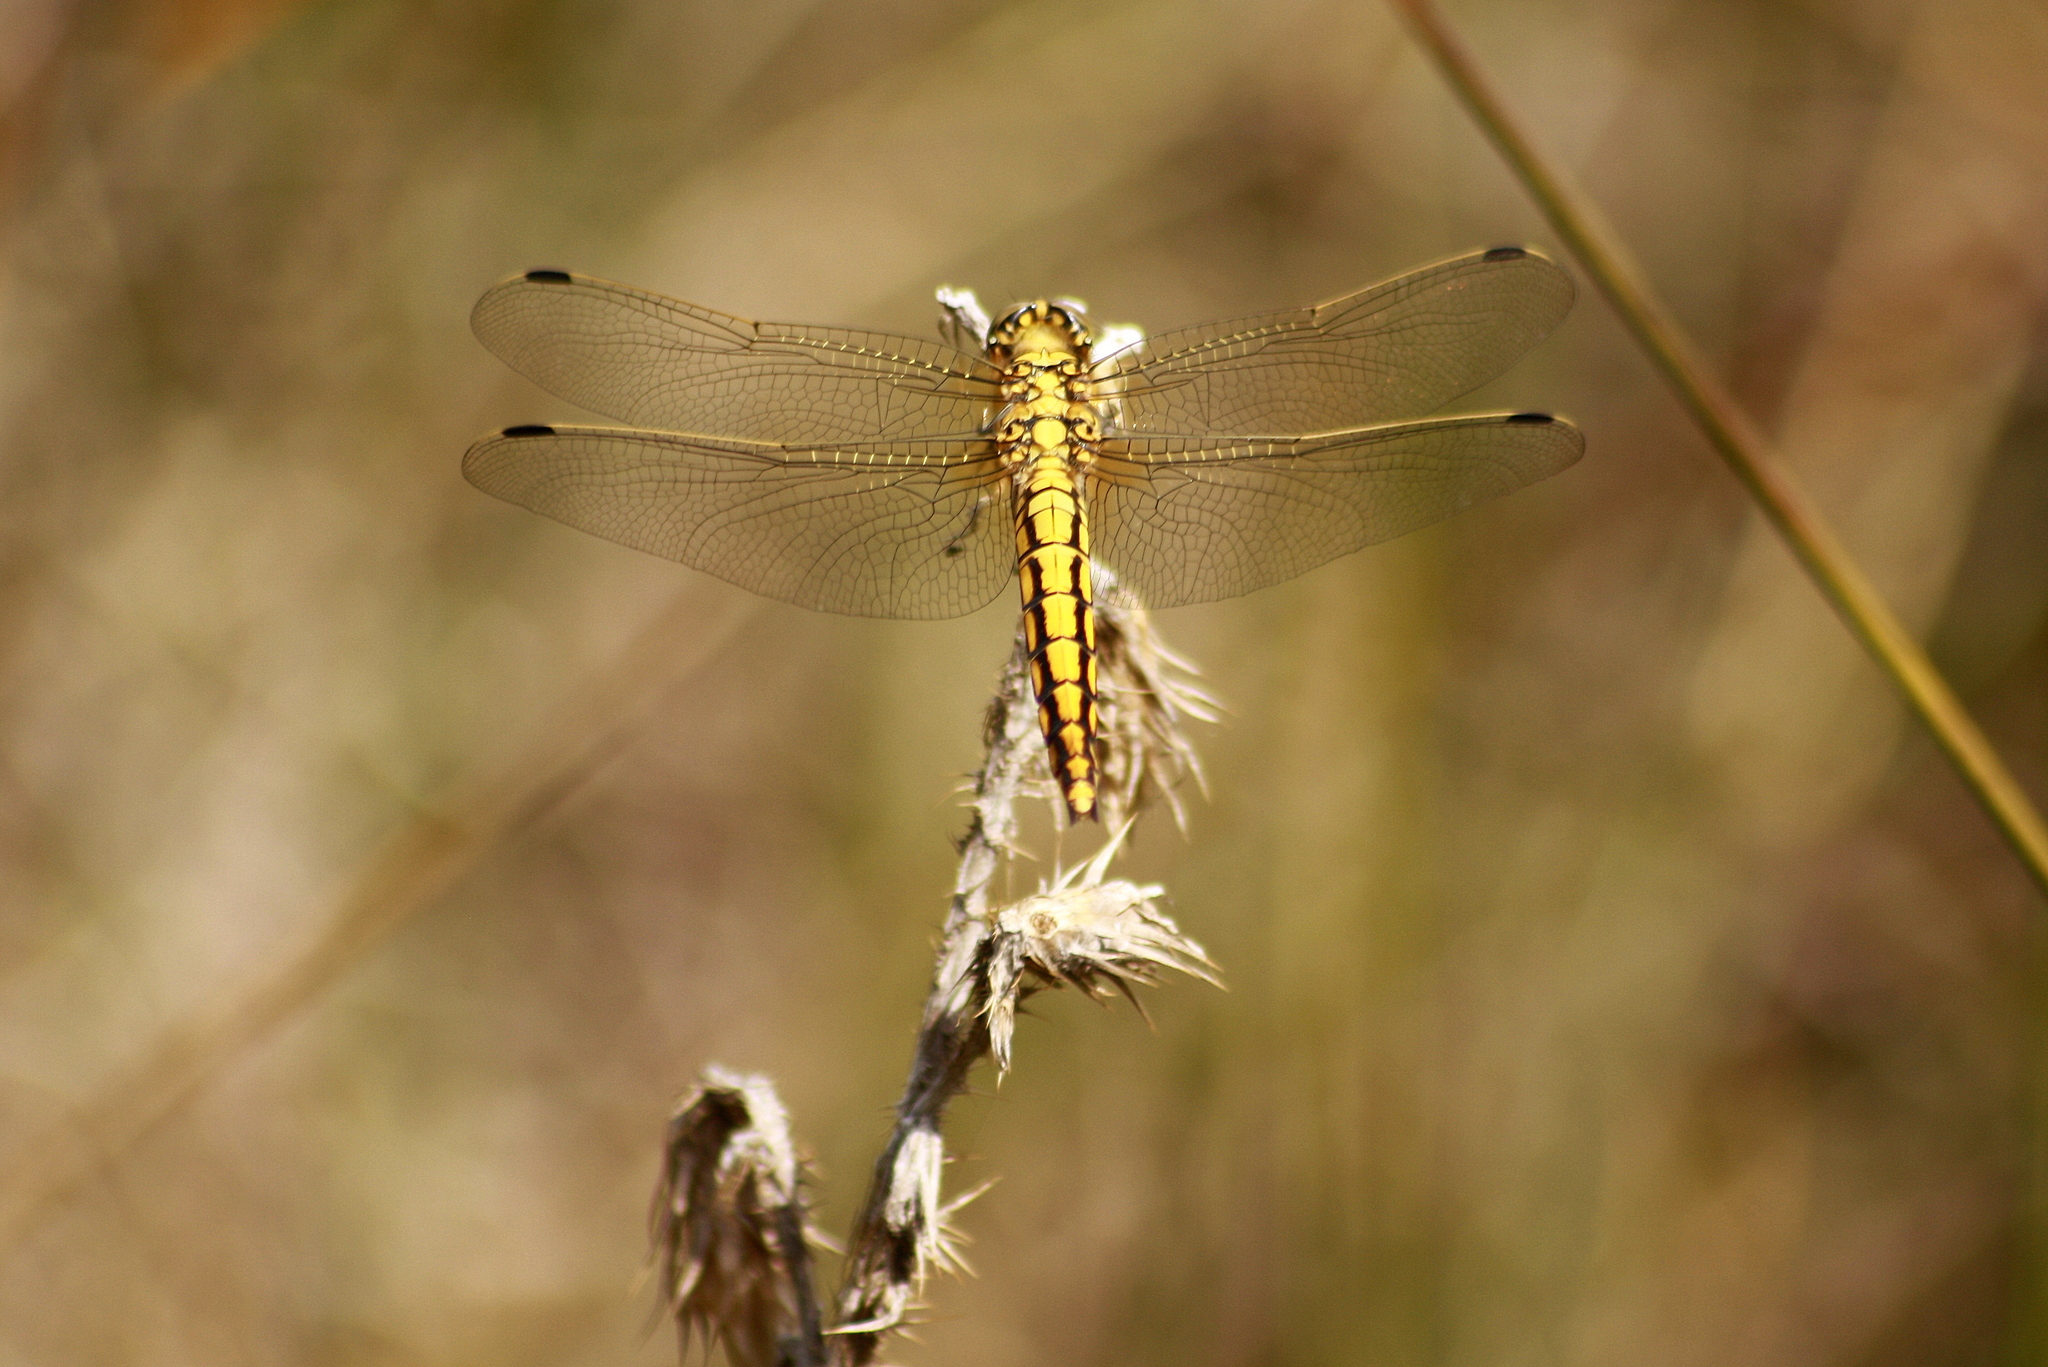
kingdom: Animalia
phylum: Arthropoda
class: Insecta
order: Odonata
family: Libellulidae
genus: Orthetrum
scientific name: Orthetrum cancellatum
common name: Black-tailed skimmer
